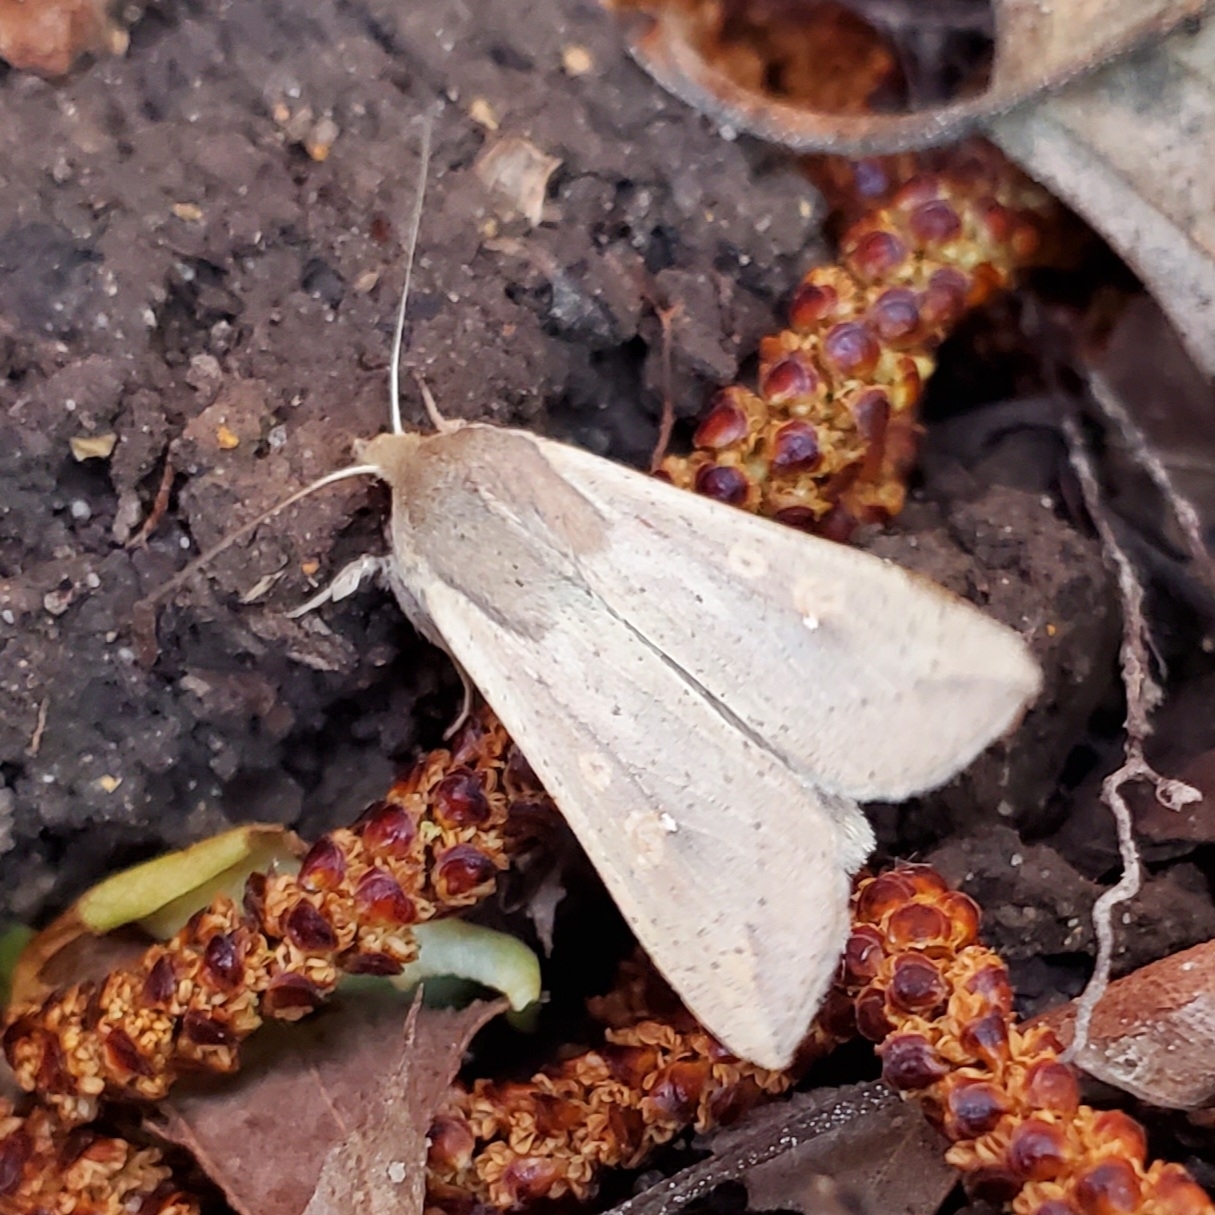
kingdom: Animalia
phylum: Arthropoda
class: Insecta
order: Lepidoptera
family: Noctuidae
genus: Mythimna
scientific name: Mythimna unipuncta
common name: White-speck
